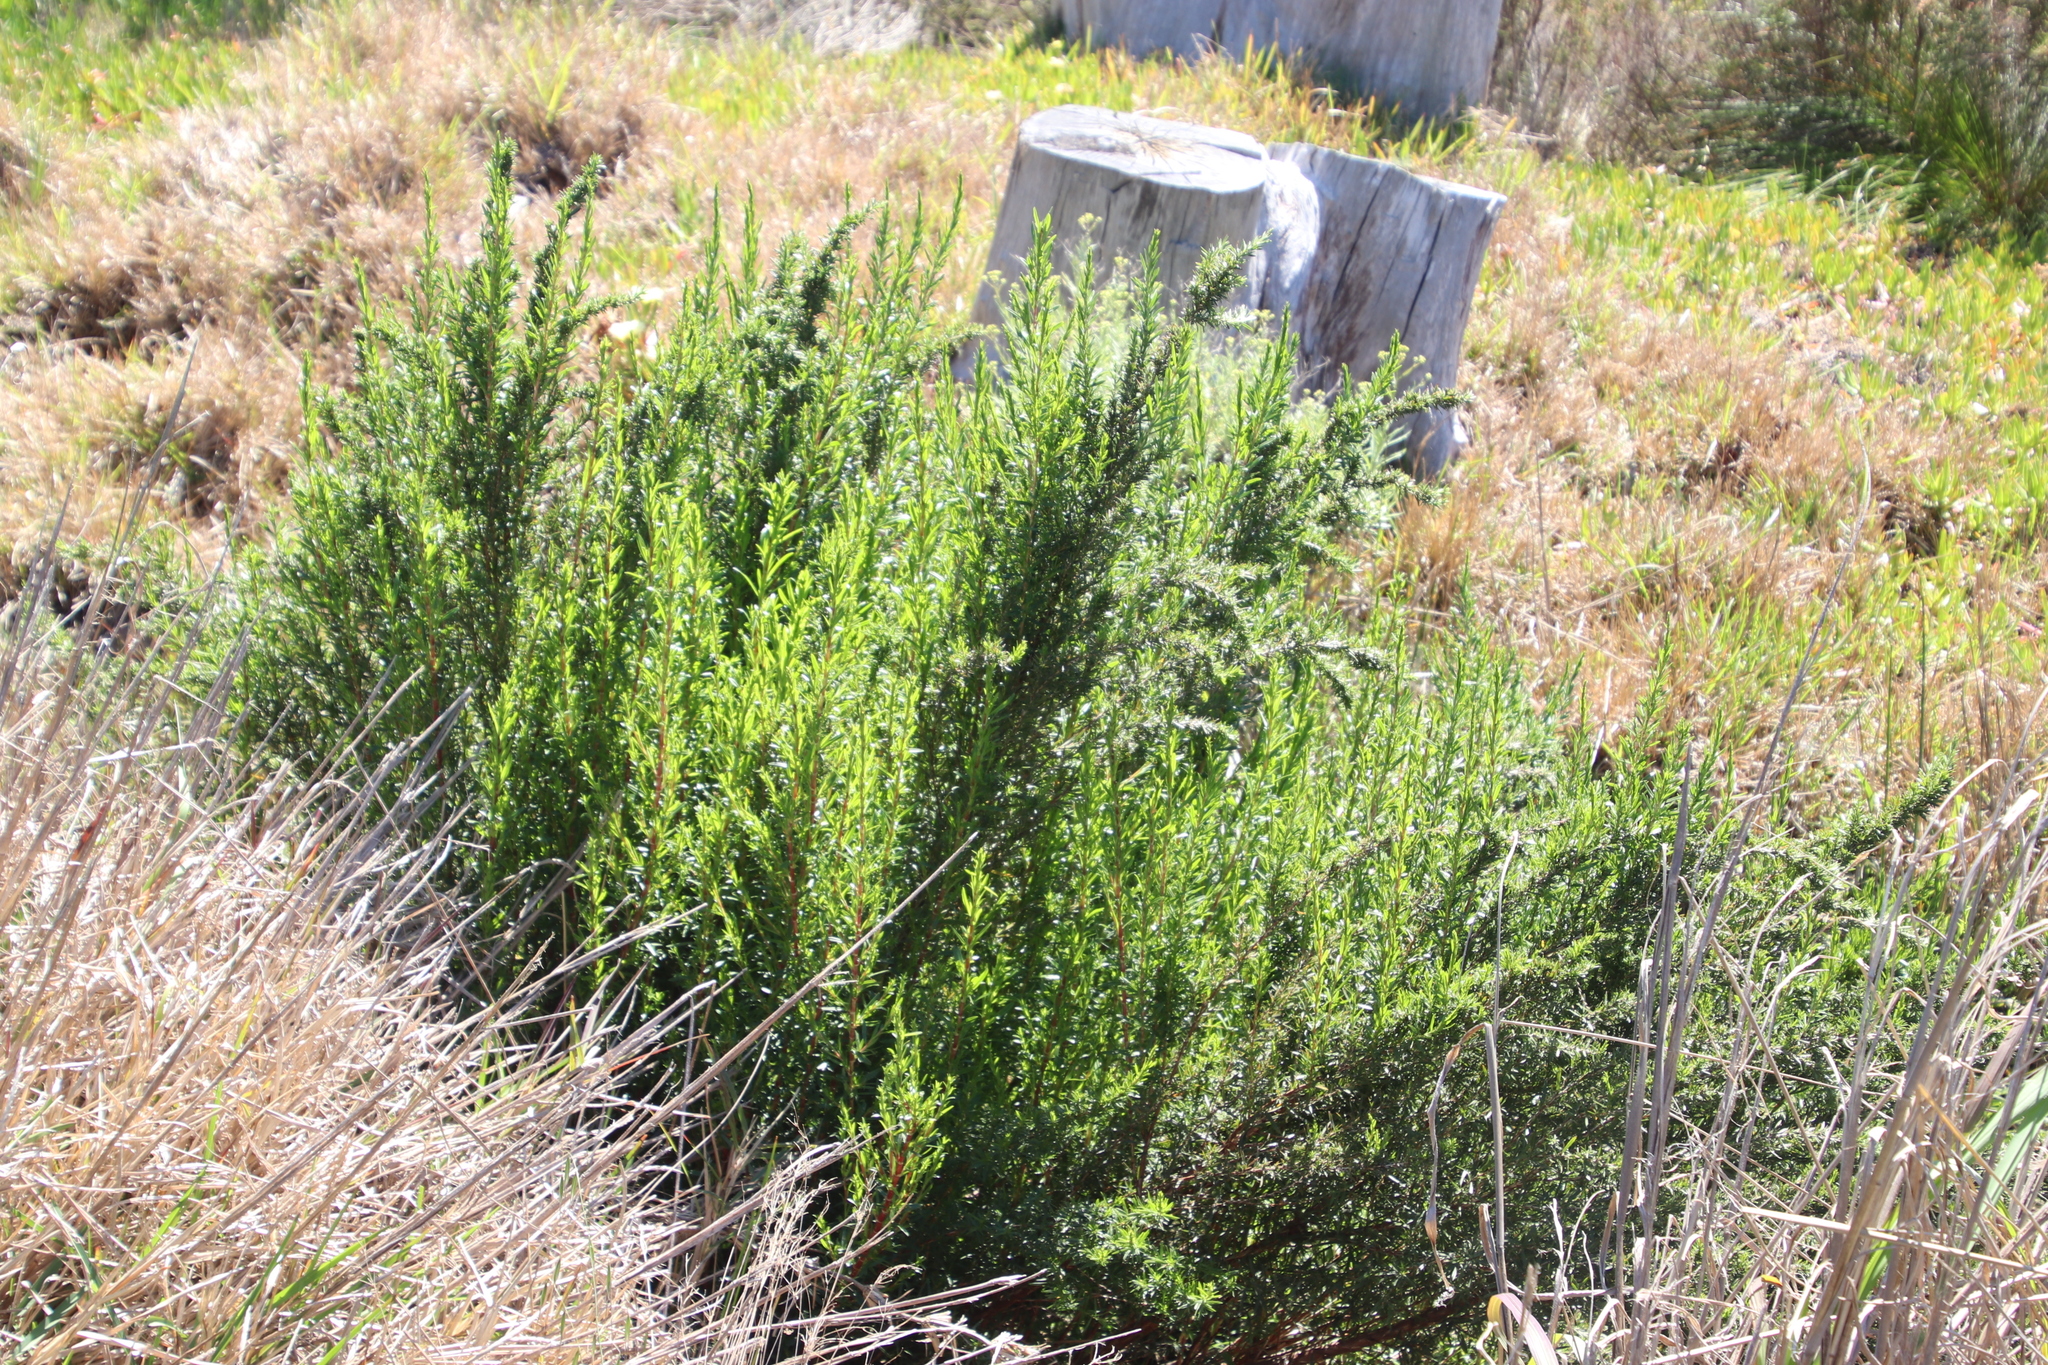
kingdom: Plantae
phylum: Tracheophyta
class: Magnoliopsida
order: Rosales
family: Rosaceae
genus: Cliffortia
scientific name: Cliffortia strobilifera
